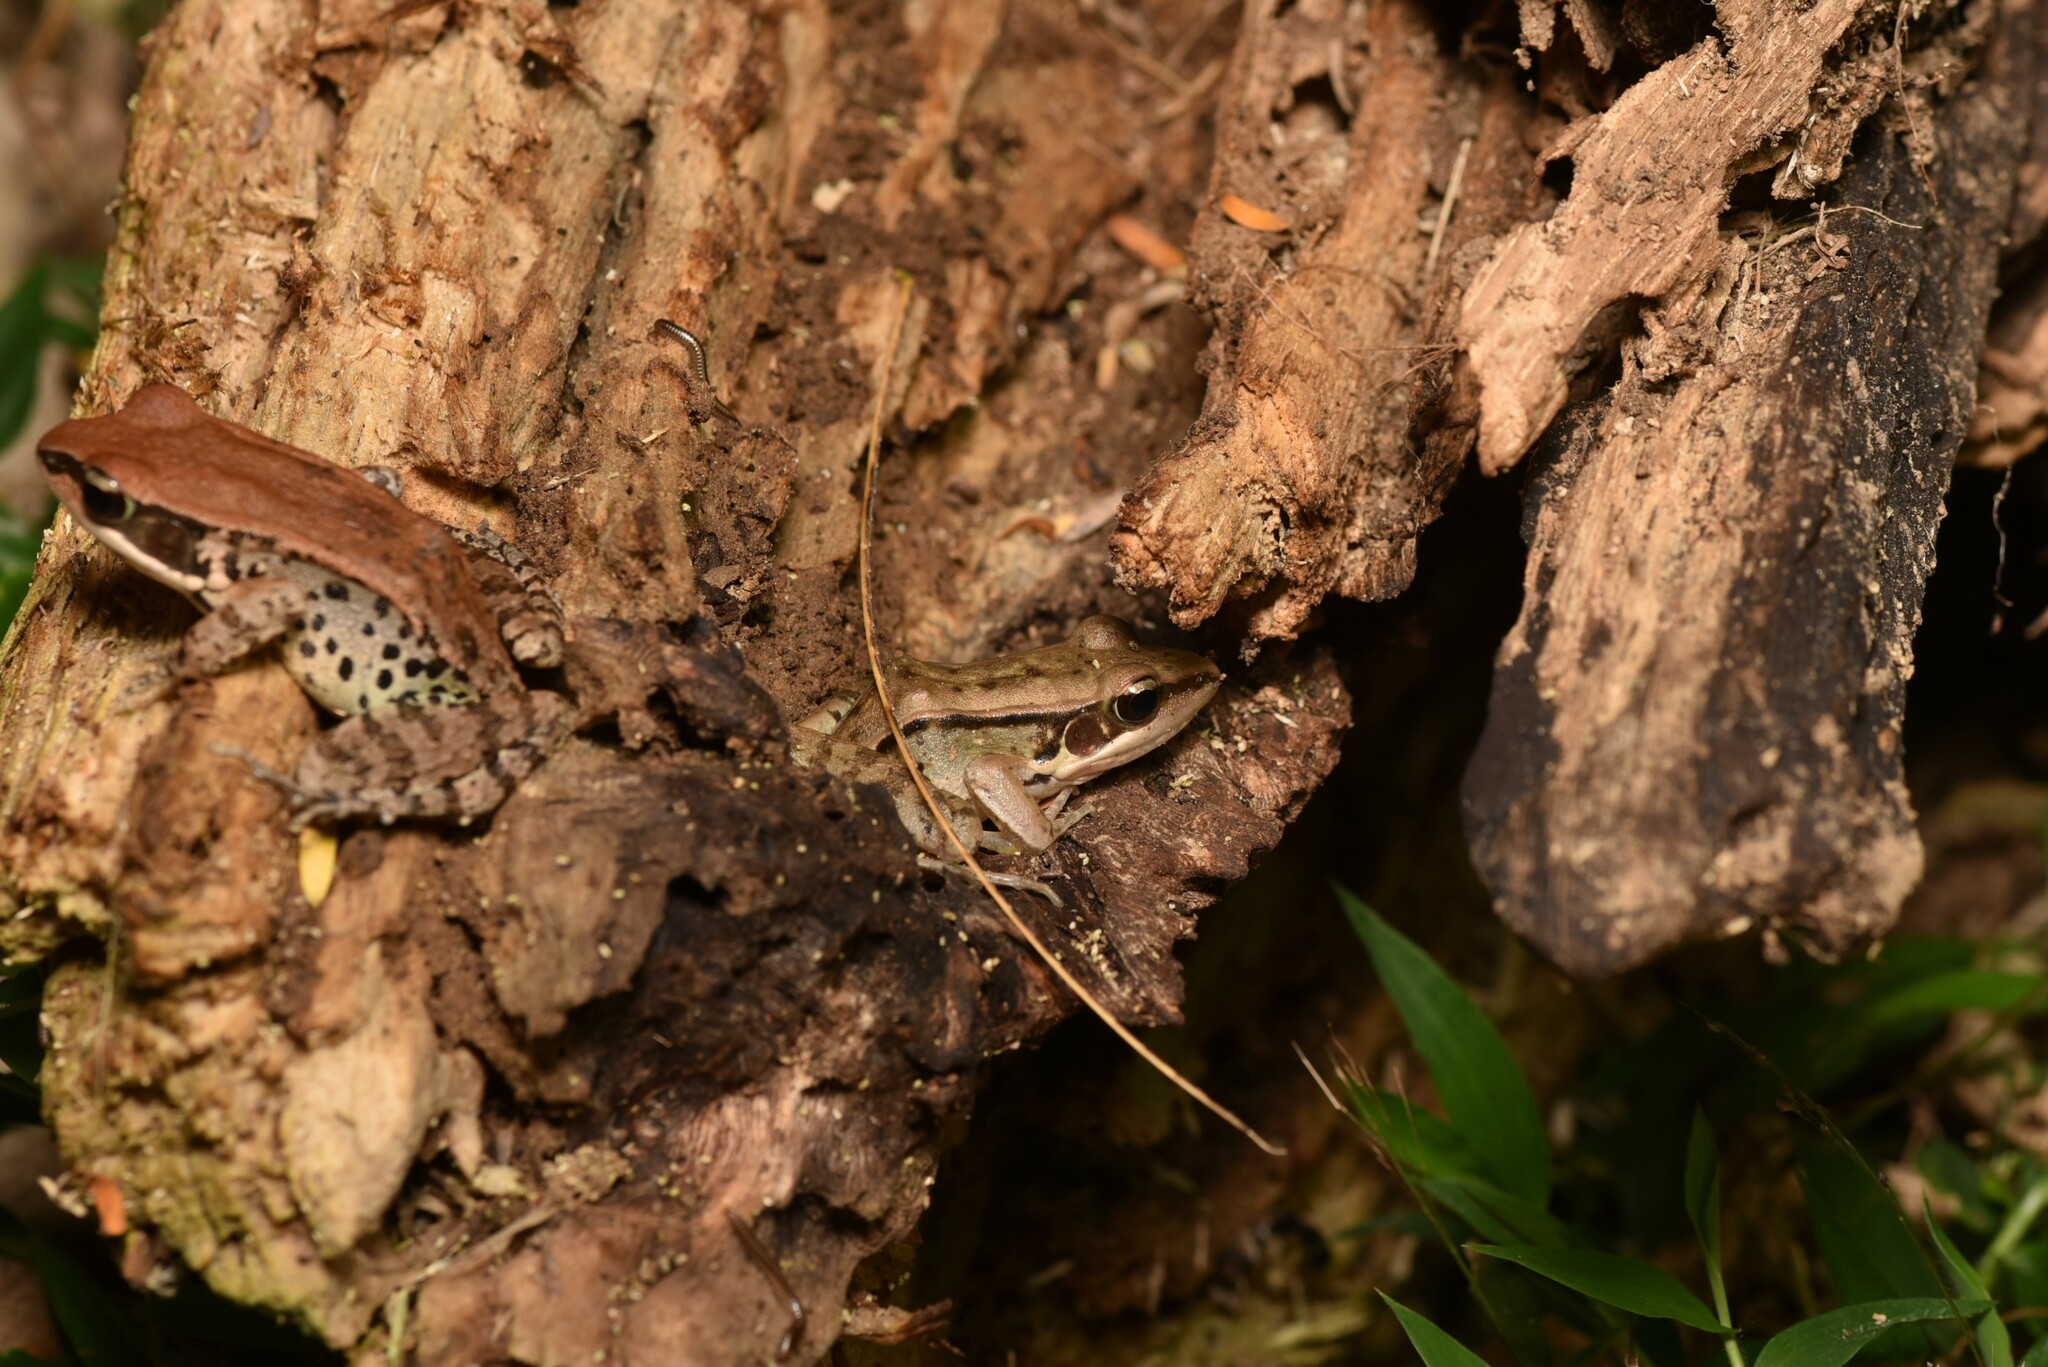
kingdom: Animalia
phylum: Chordata
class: Amphibia
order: Anura
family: Ranidae
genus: Sylvirana
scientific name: Sylvirana guentheri
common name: Guenther's amoy frog
